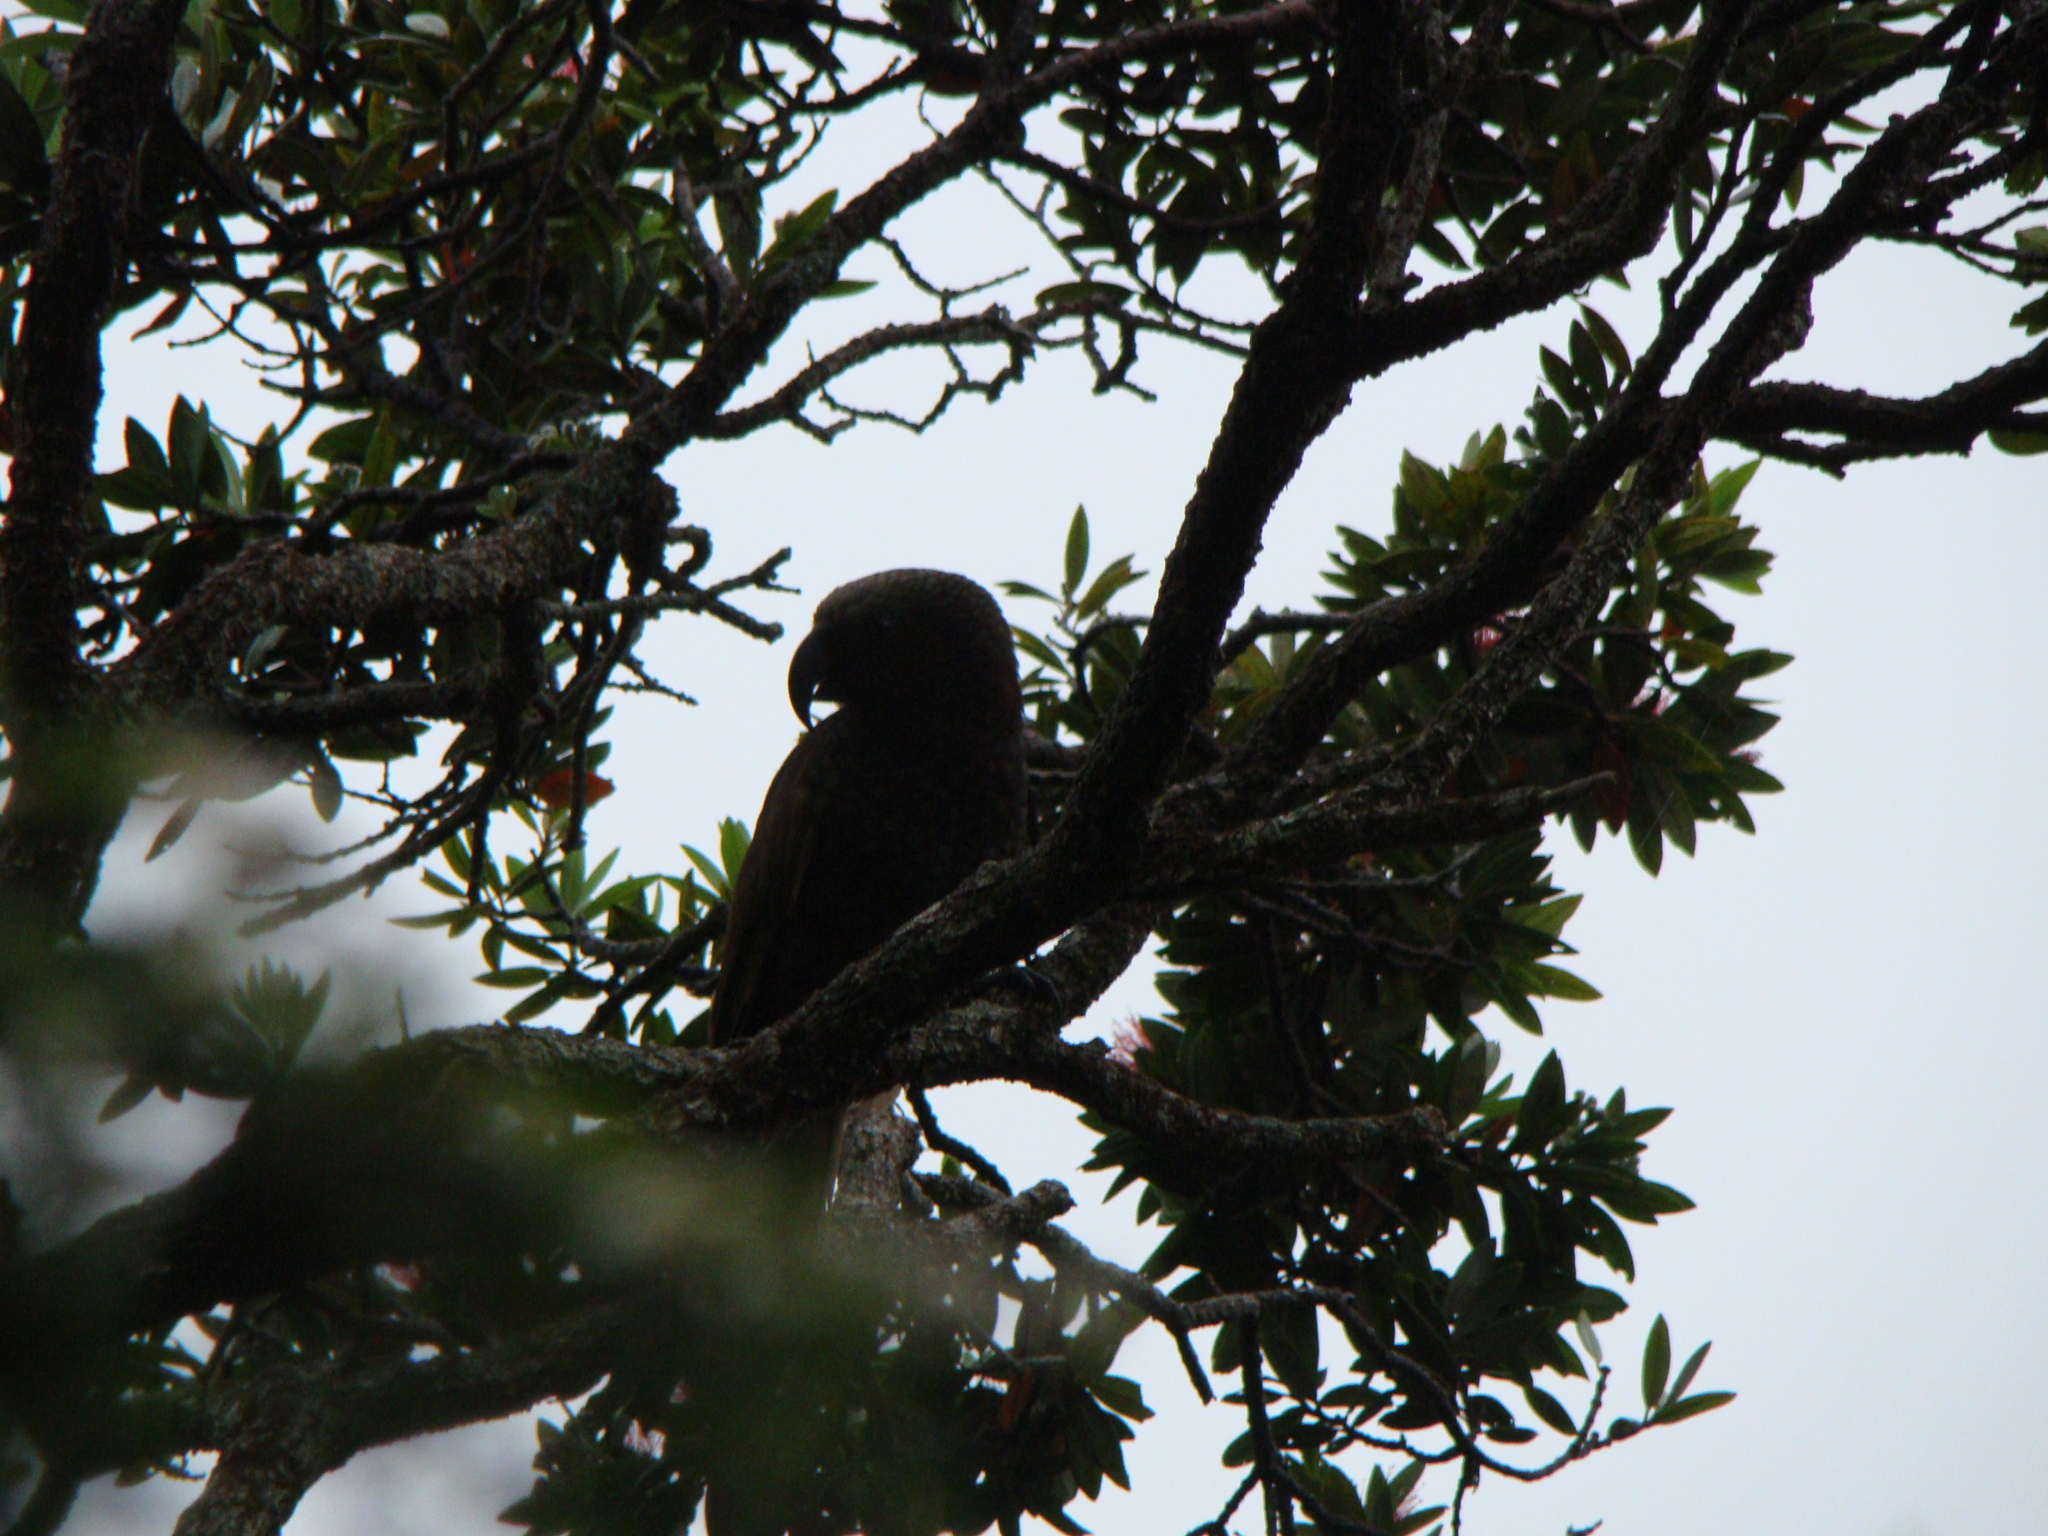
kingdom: Animalia
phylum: Chordata
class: Aves
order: Psittaciformes
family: Psittacidae
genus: Nestor
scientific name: Nestor meridionalis
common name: New zealand kaka
